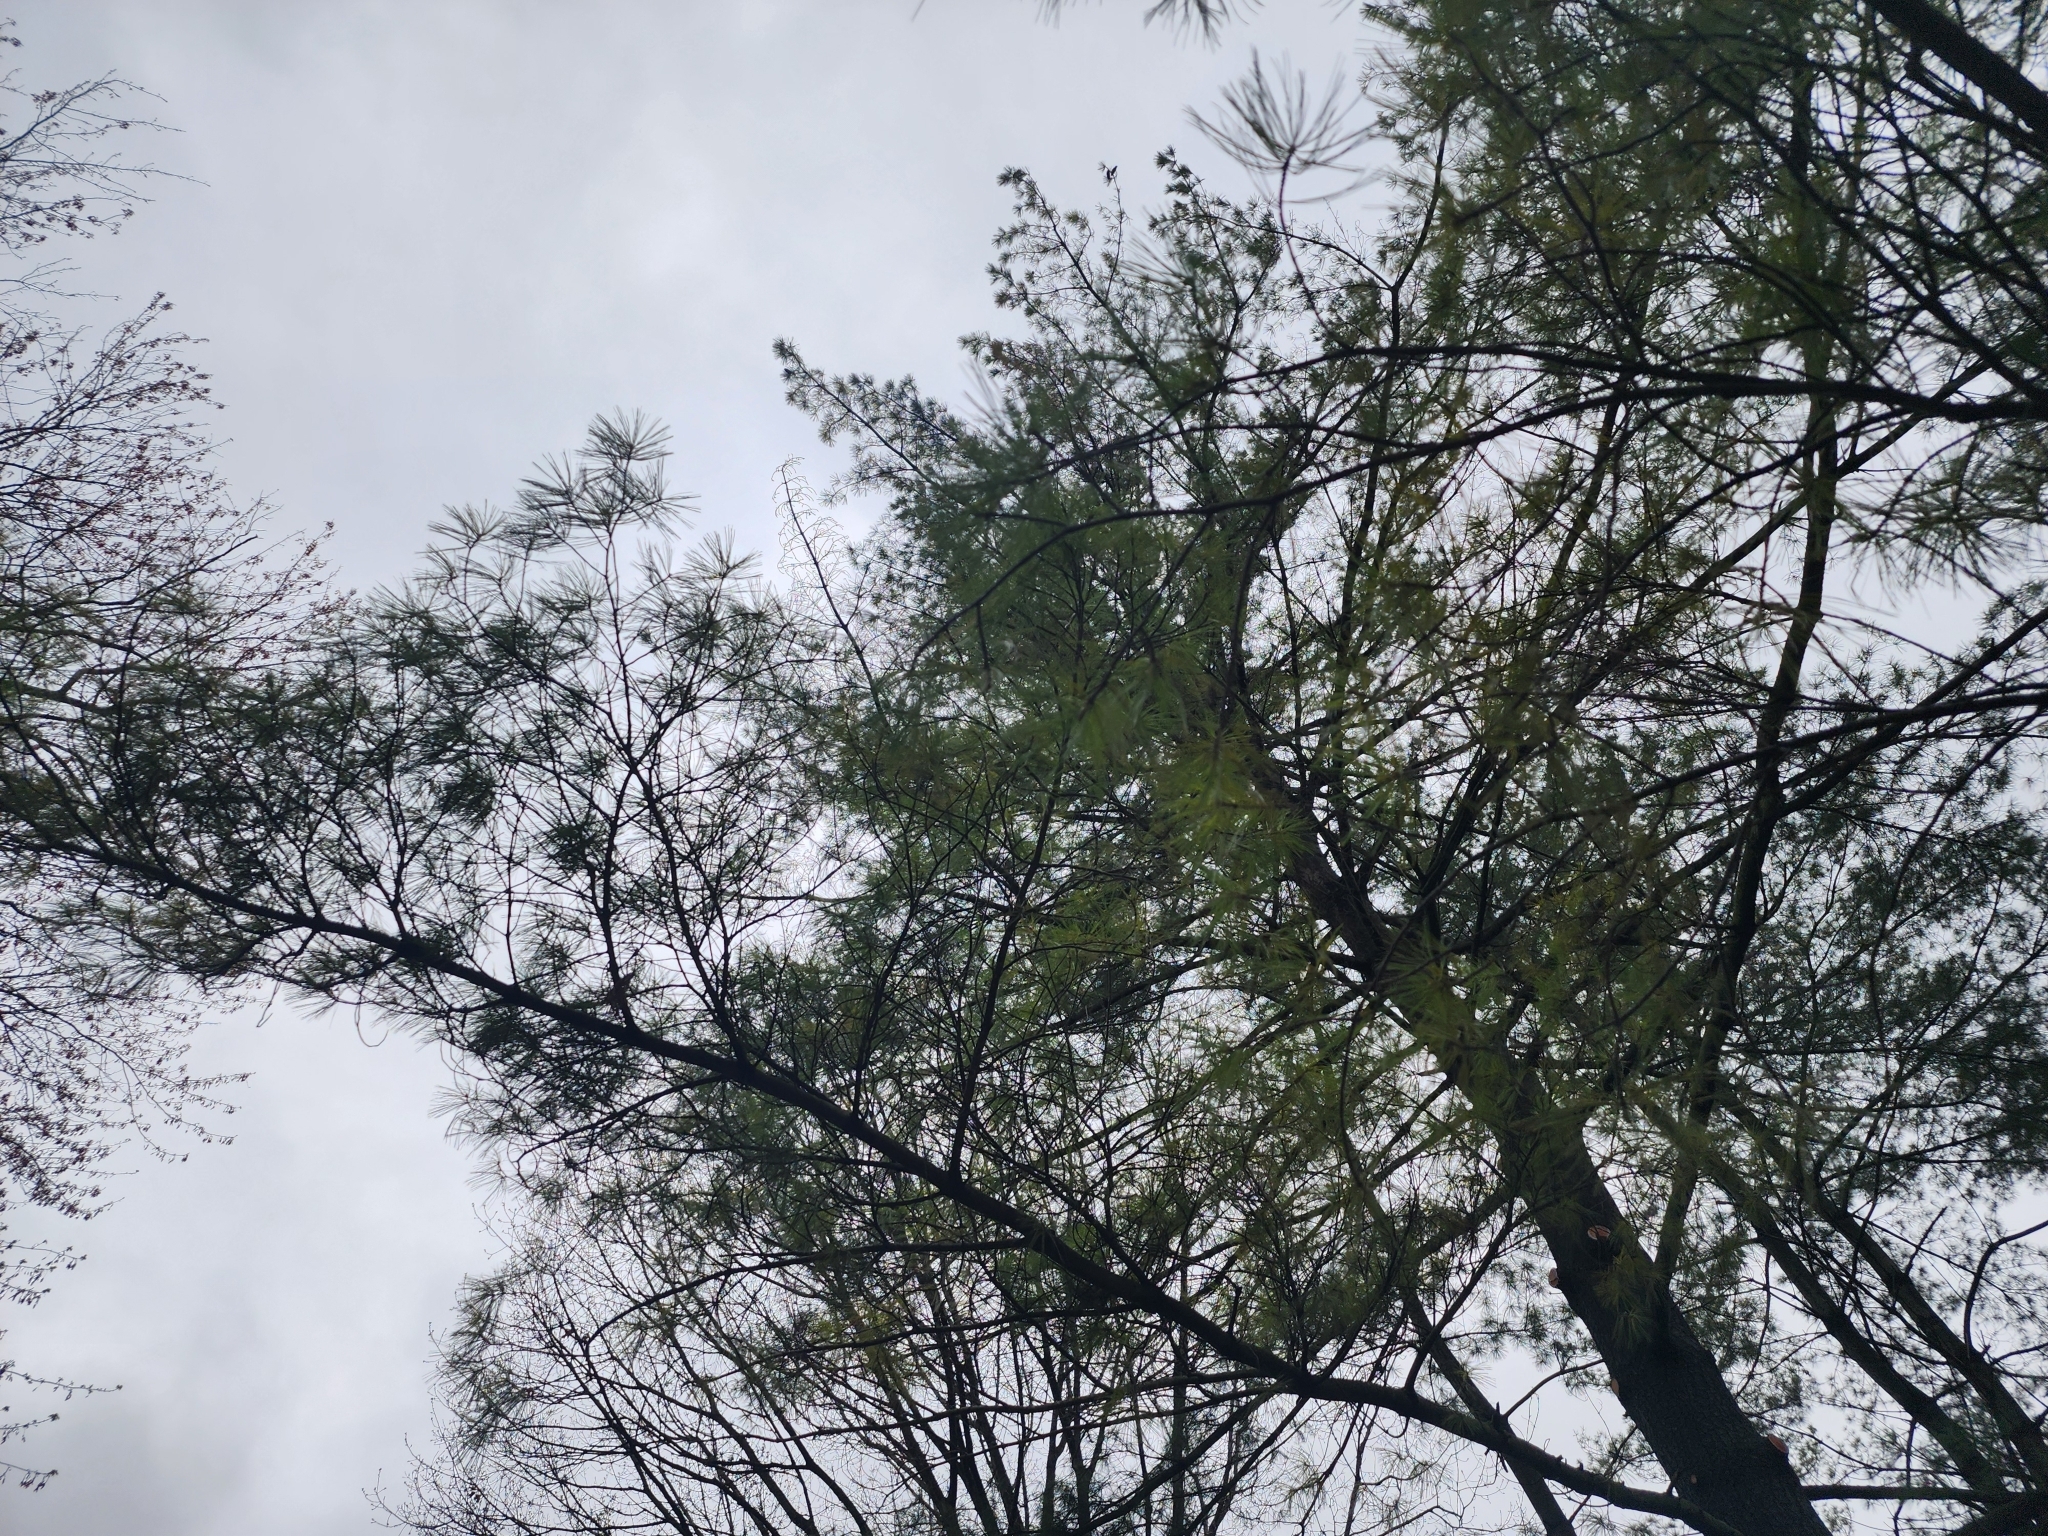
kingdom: Plantae
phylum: Tracheophyta
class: Pinopsida
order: Pinales
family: Pinaceae
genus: Pinus
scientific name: Pinus strobus
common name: Weymouth pine
